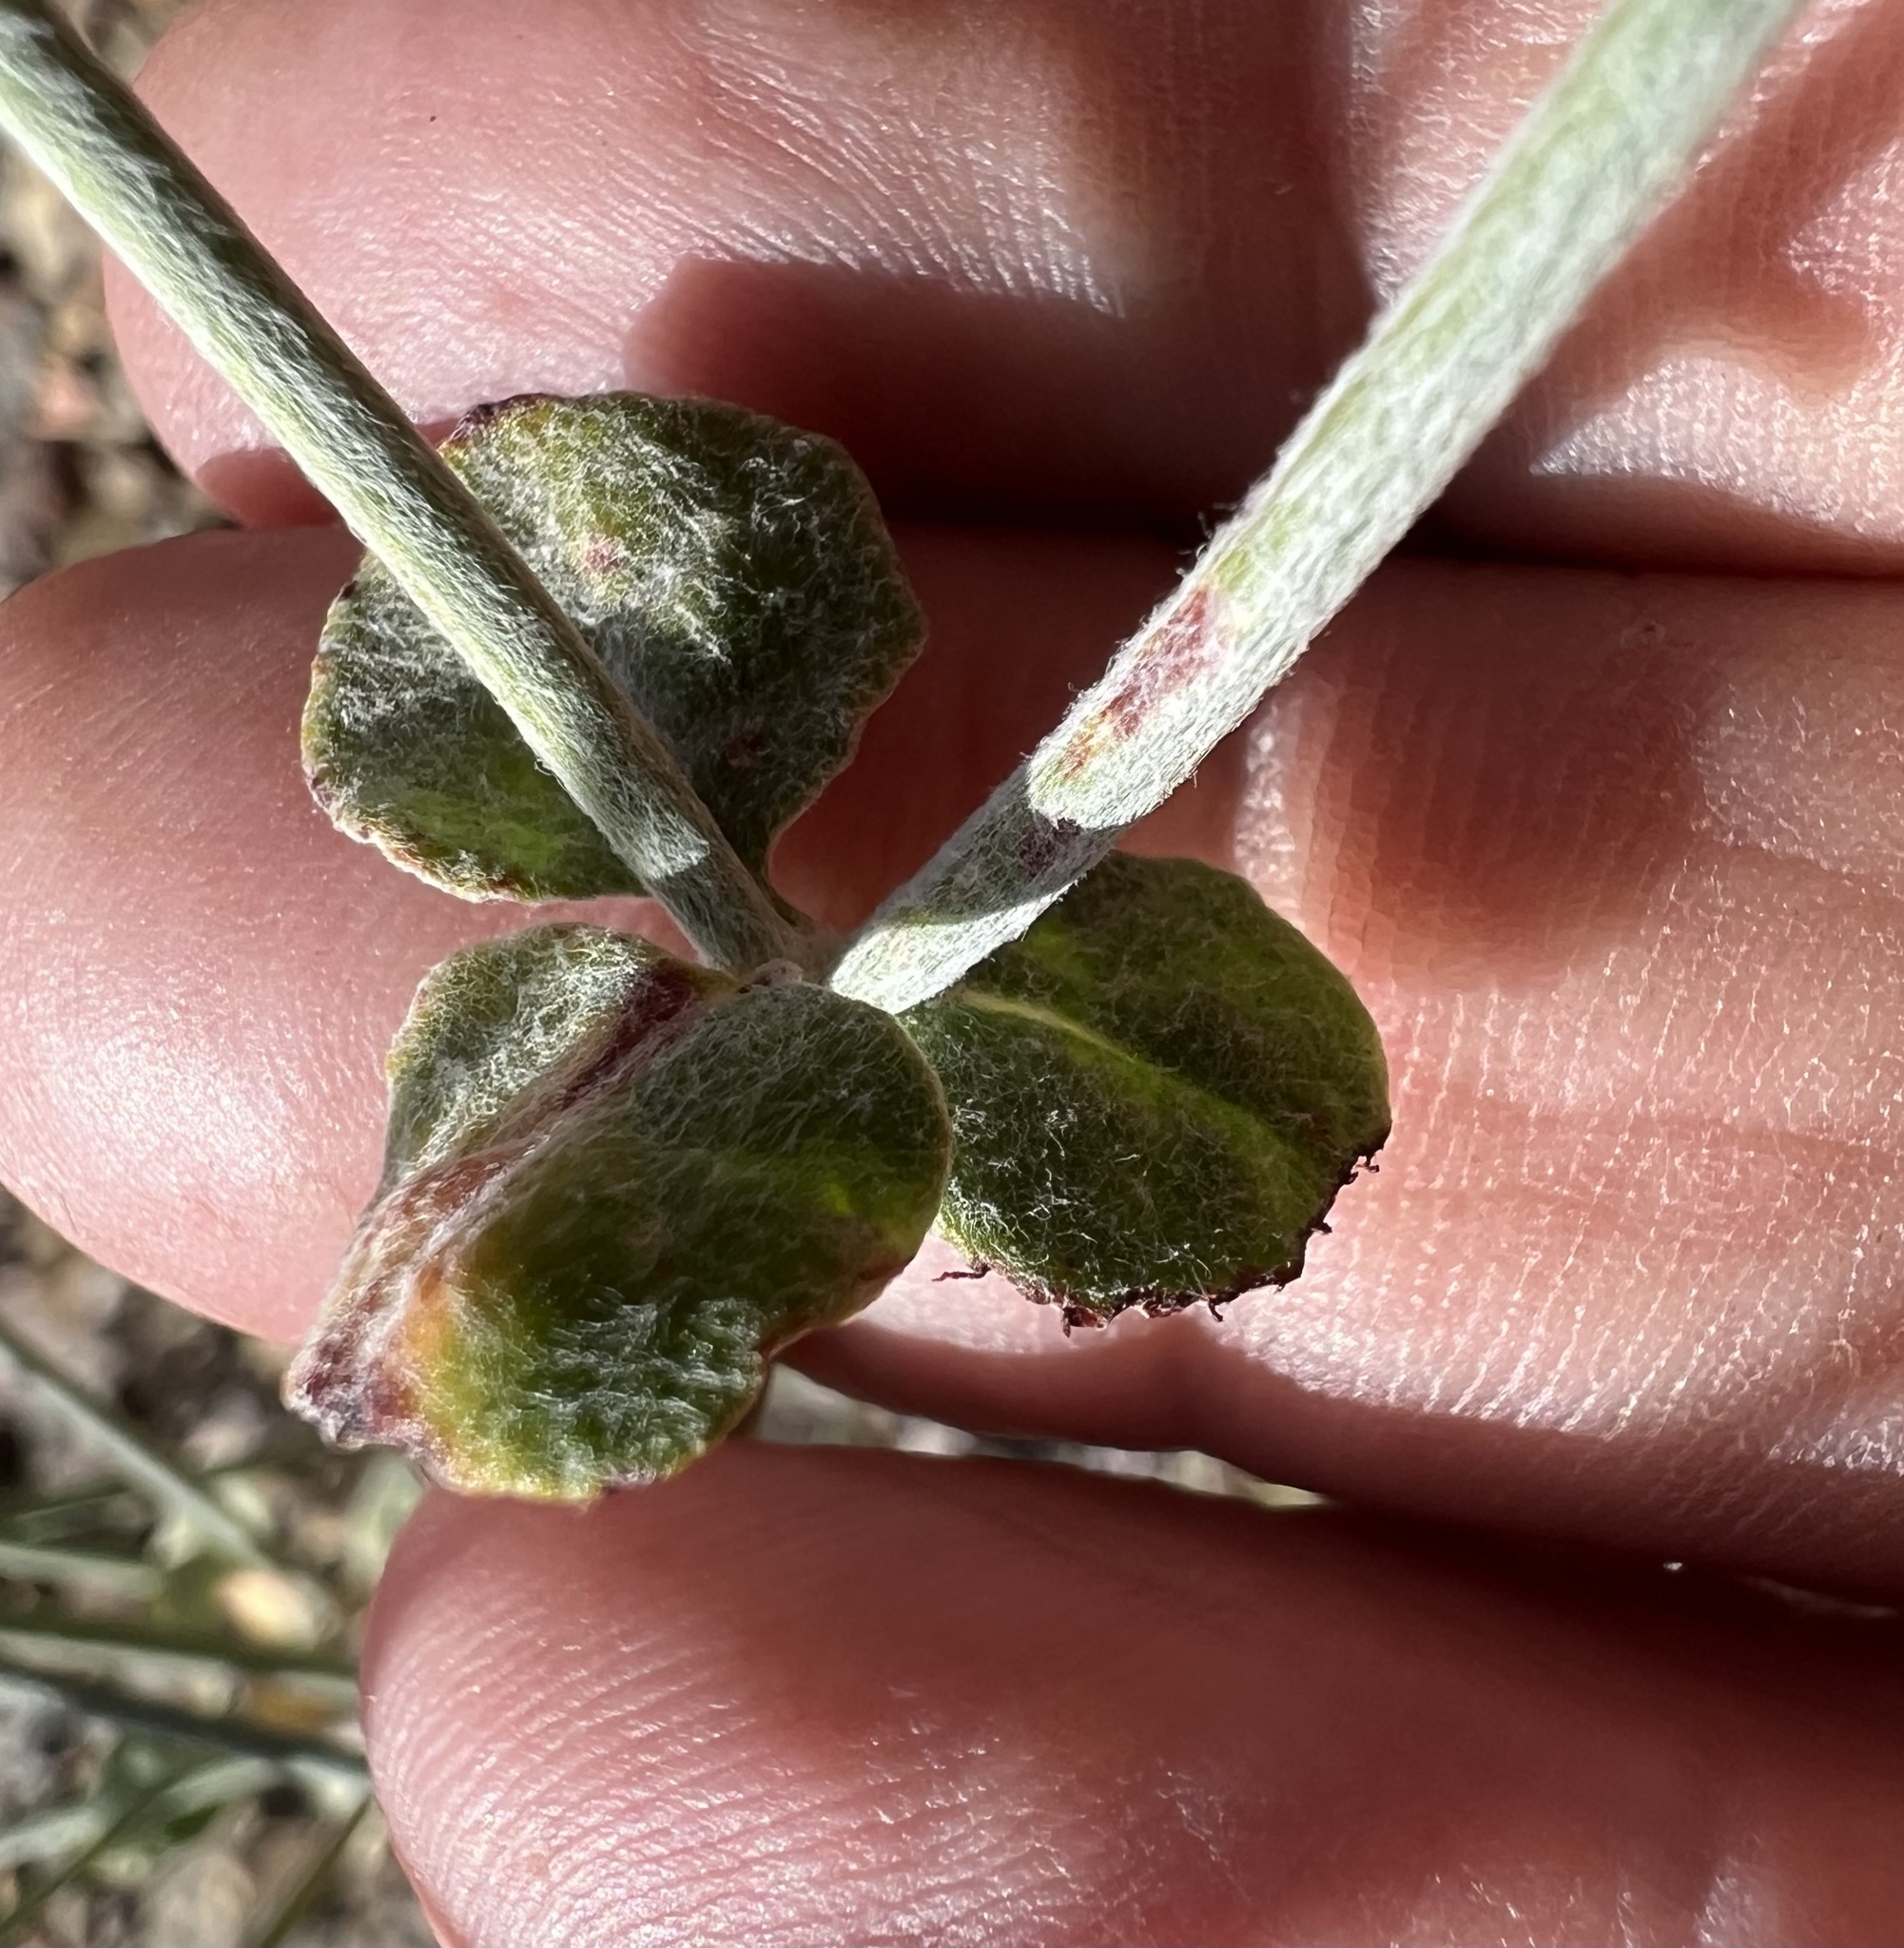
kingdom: Plantae
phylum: Tracheophyta
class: Magnoliopsida
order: Caryophyllales
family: Polygonaceae
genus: Eriogonum
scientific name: Eriogonum panamintense
